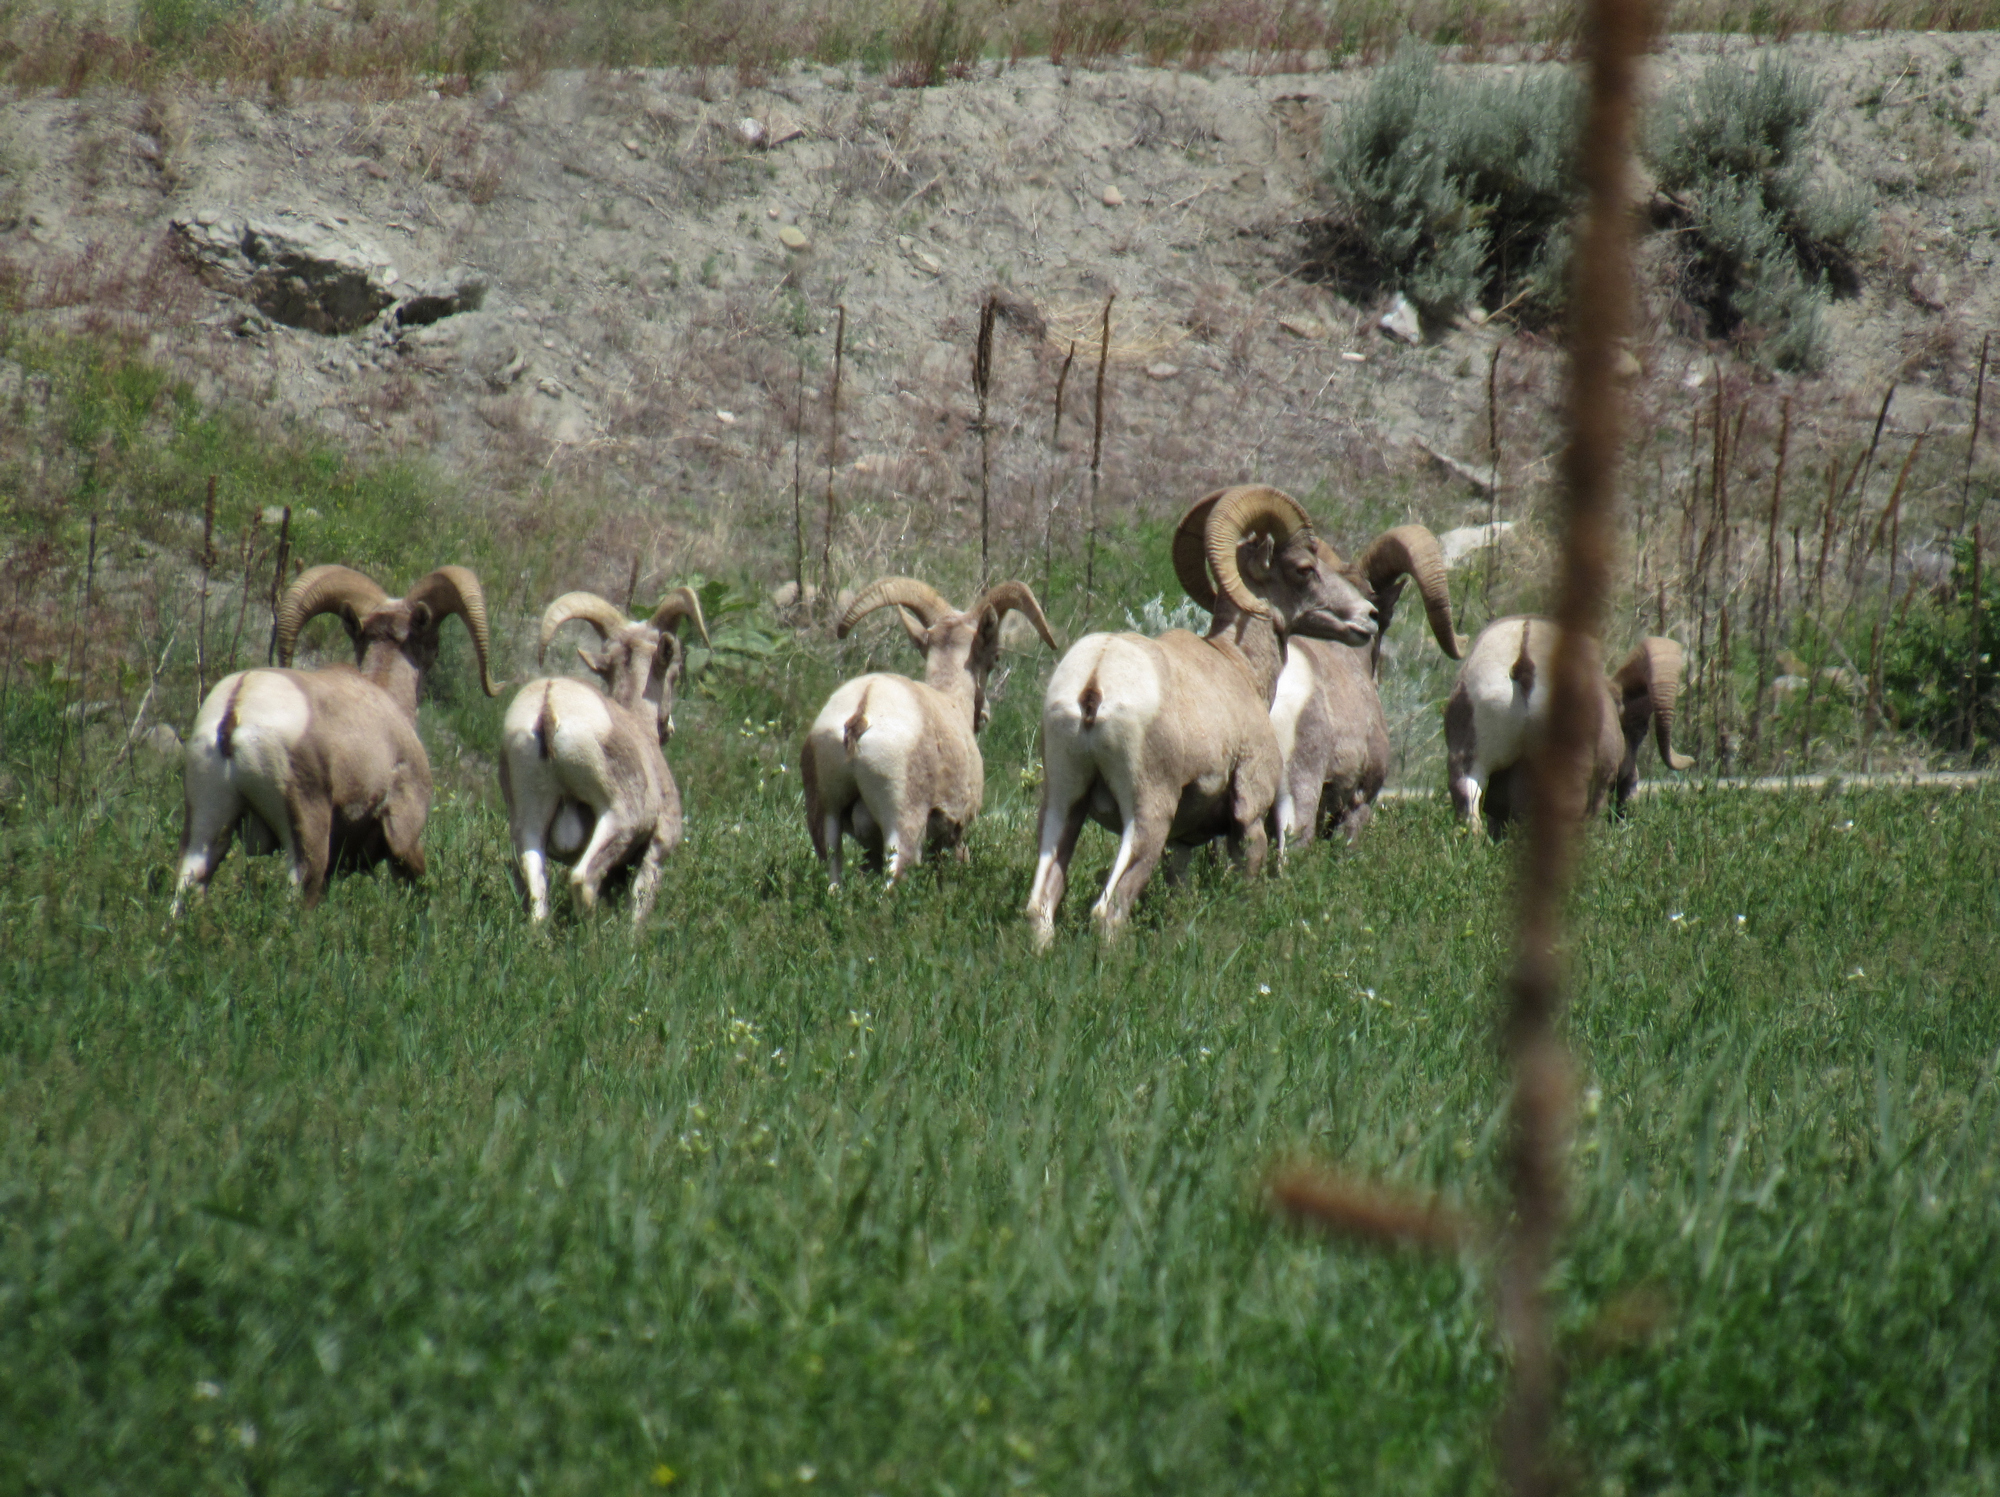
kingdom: Animalia
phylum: Chordata
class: Mammalia
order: Artiodactyla
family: Bovidae
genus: Ovis
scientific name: Ovis canadensis
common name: Bighorn sheep
